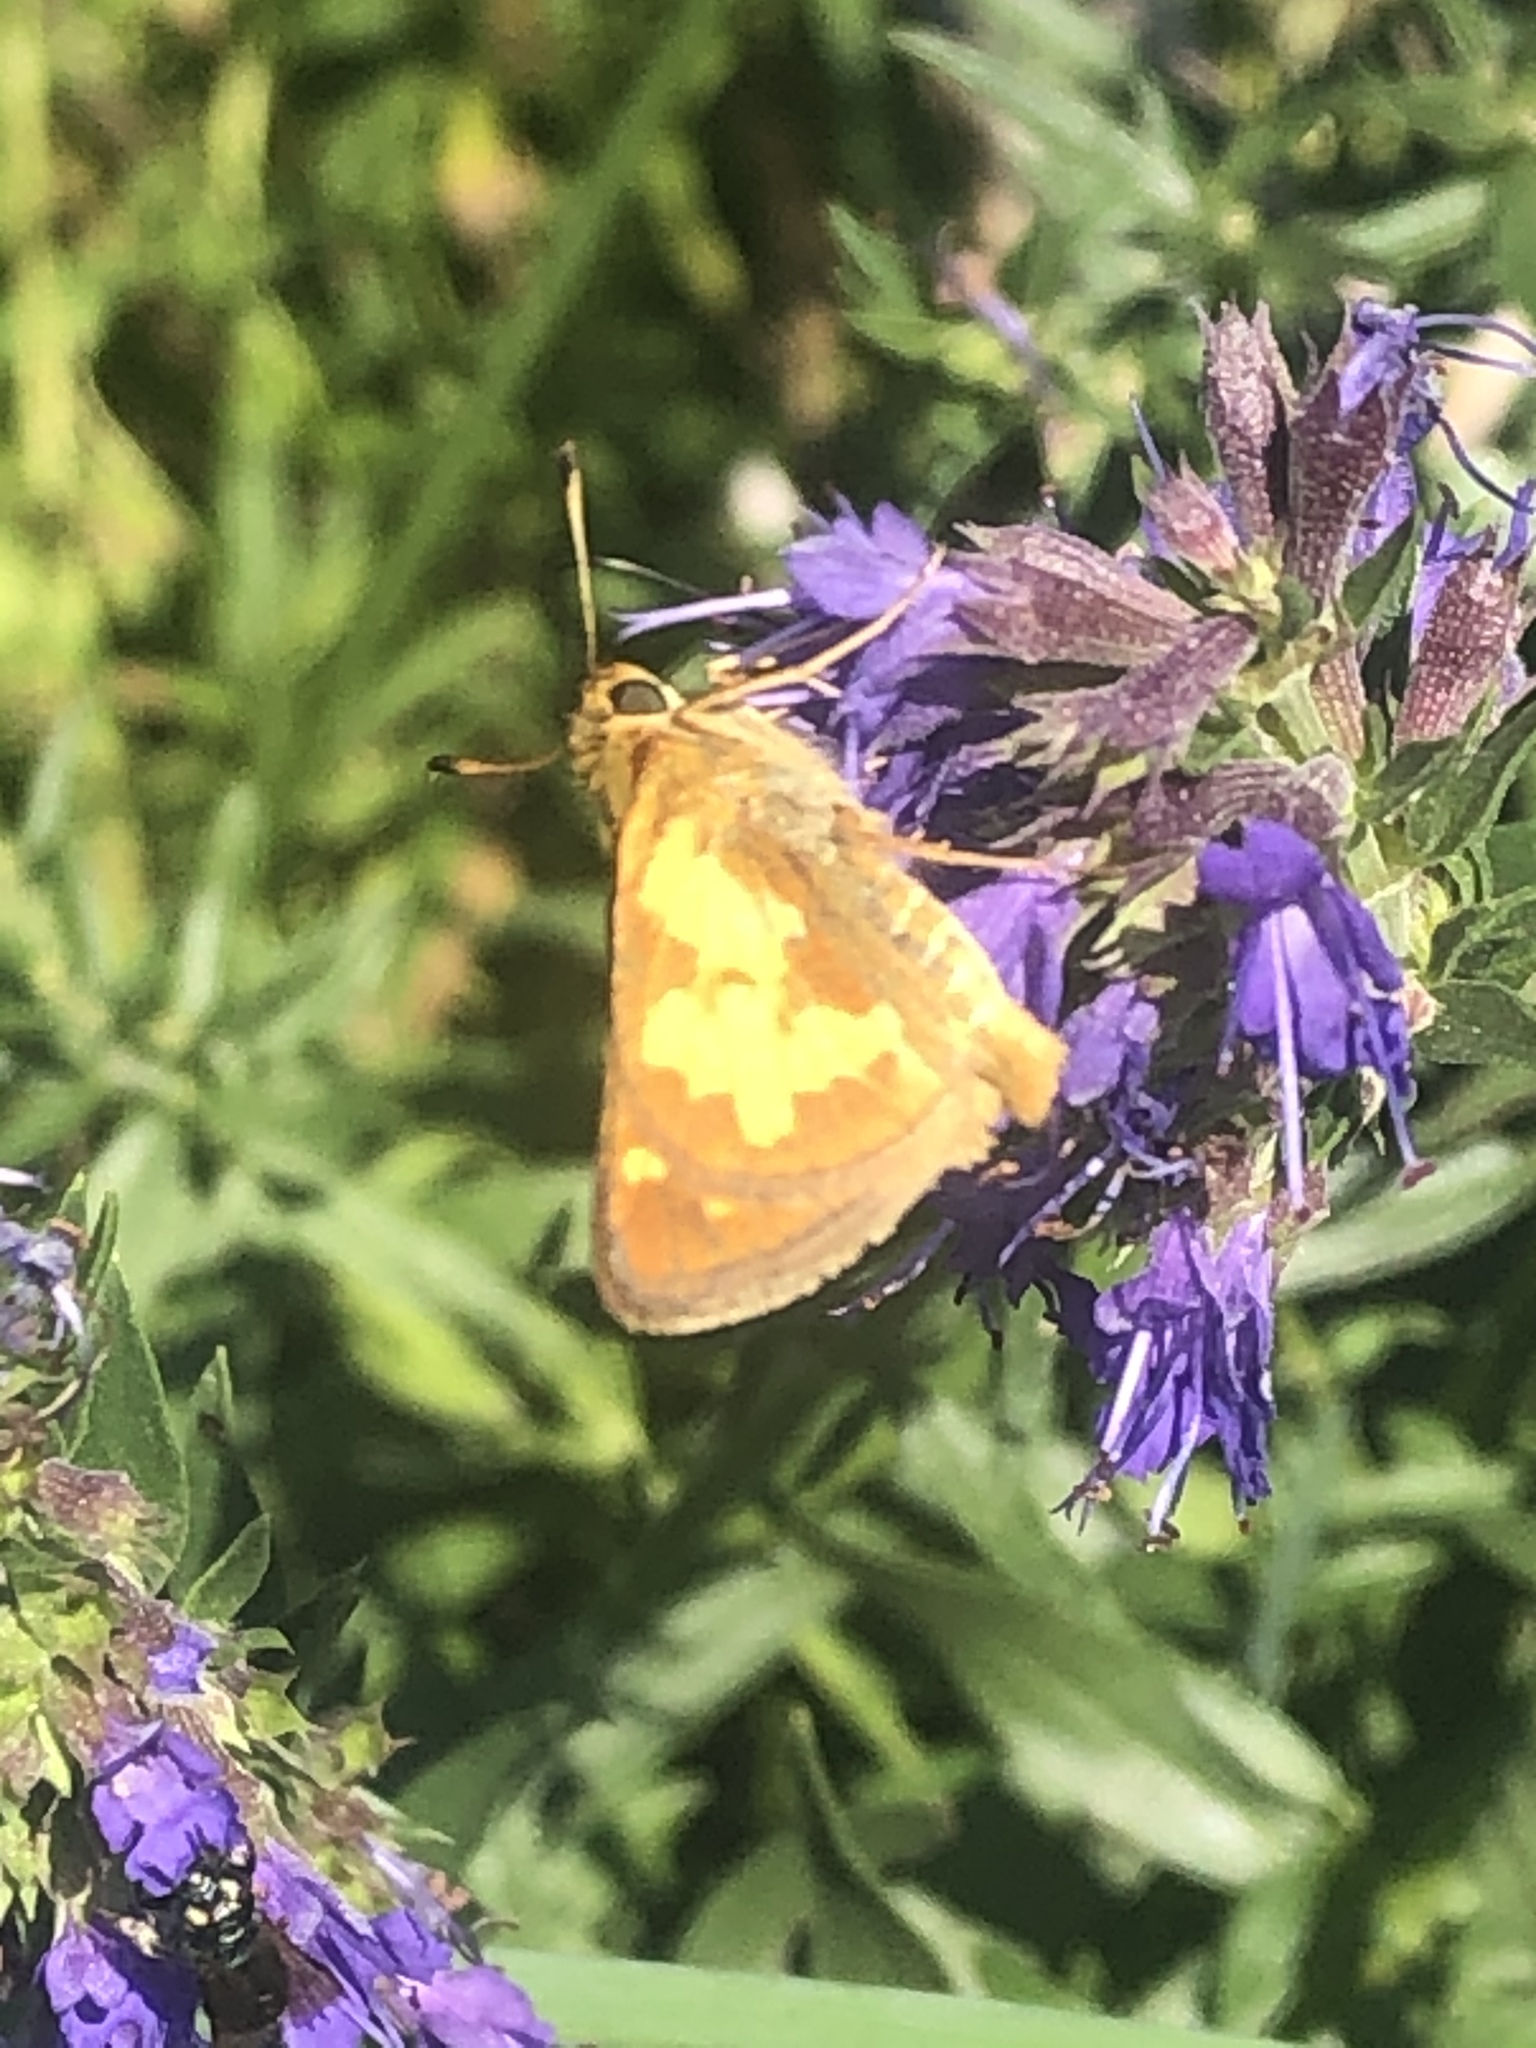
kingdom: Animalia
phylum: Arthropoda
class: Insecta
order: Lepidoptera
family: Hesperiidae
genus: Polites
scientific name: Polites coras
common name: Peck's skipper
